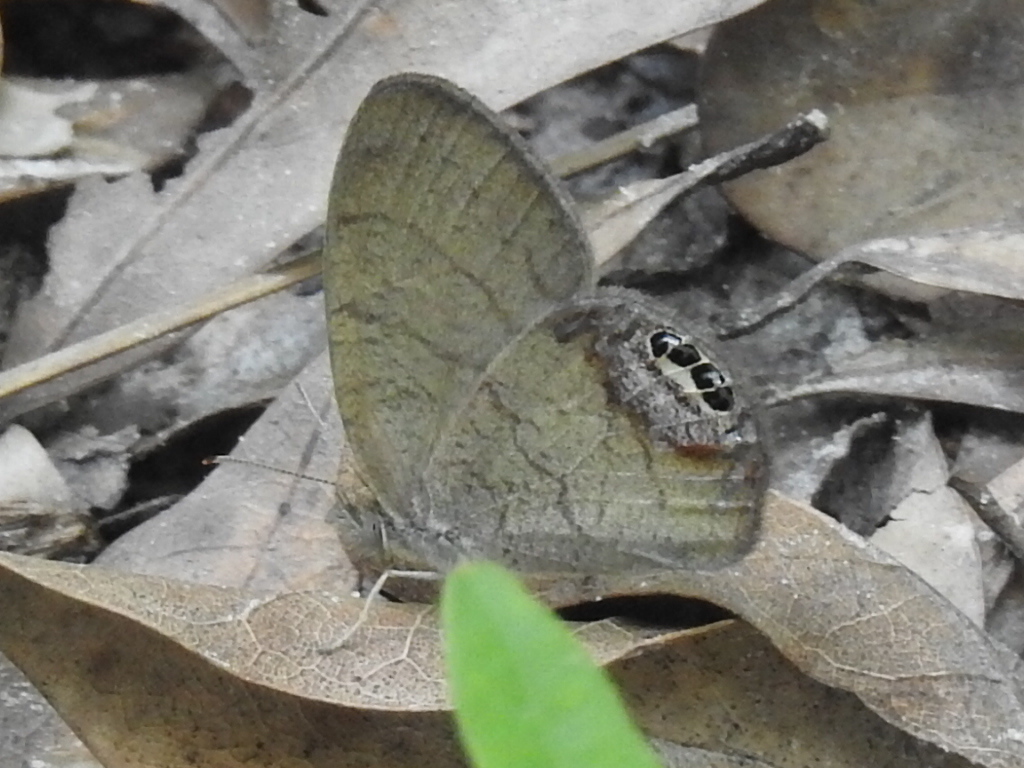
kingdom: Animalia
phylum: Arthropoda
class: Insecta
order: Lepidoptera
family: Nymphalidae
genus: Euptychia
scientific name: Euptychia cornelius
